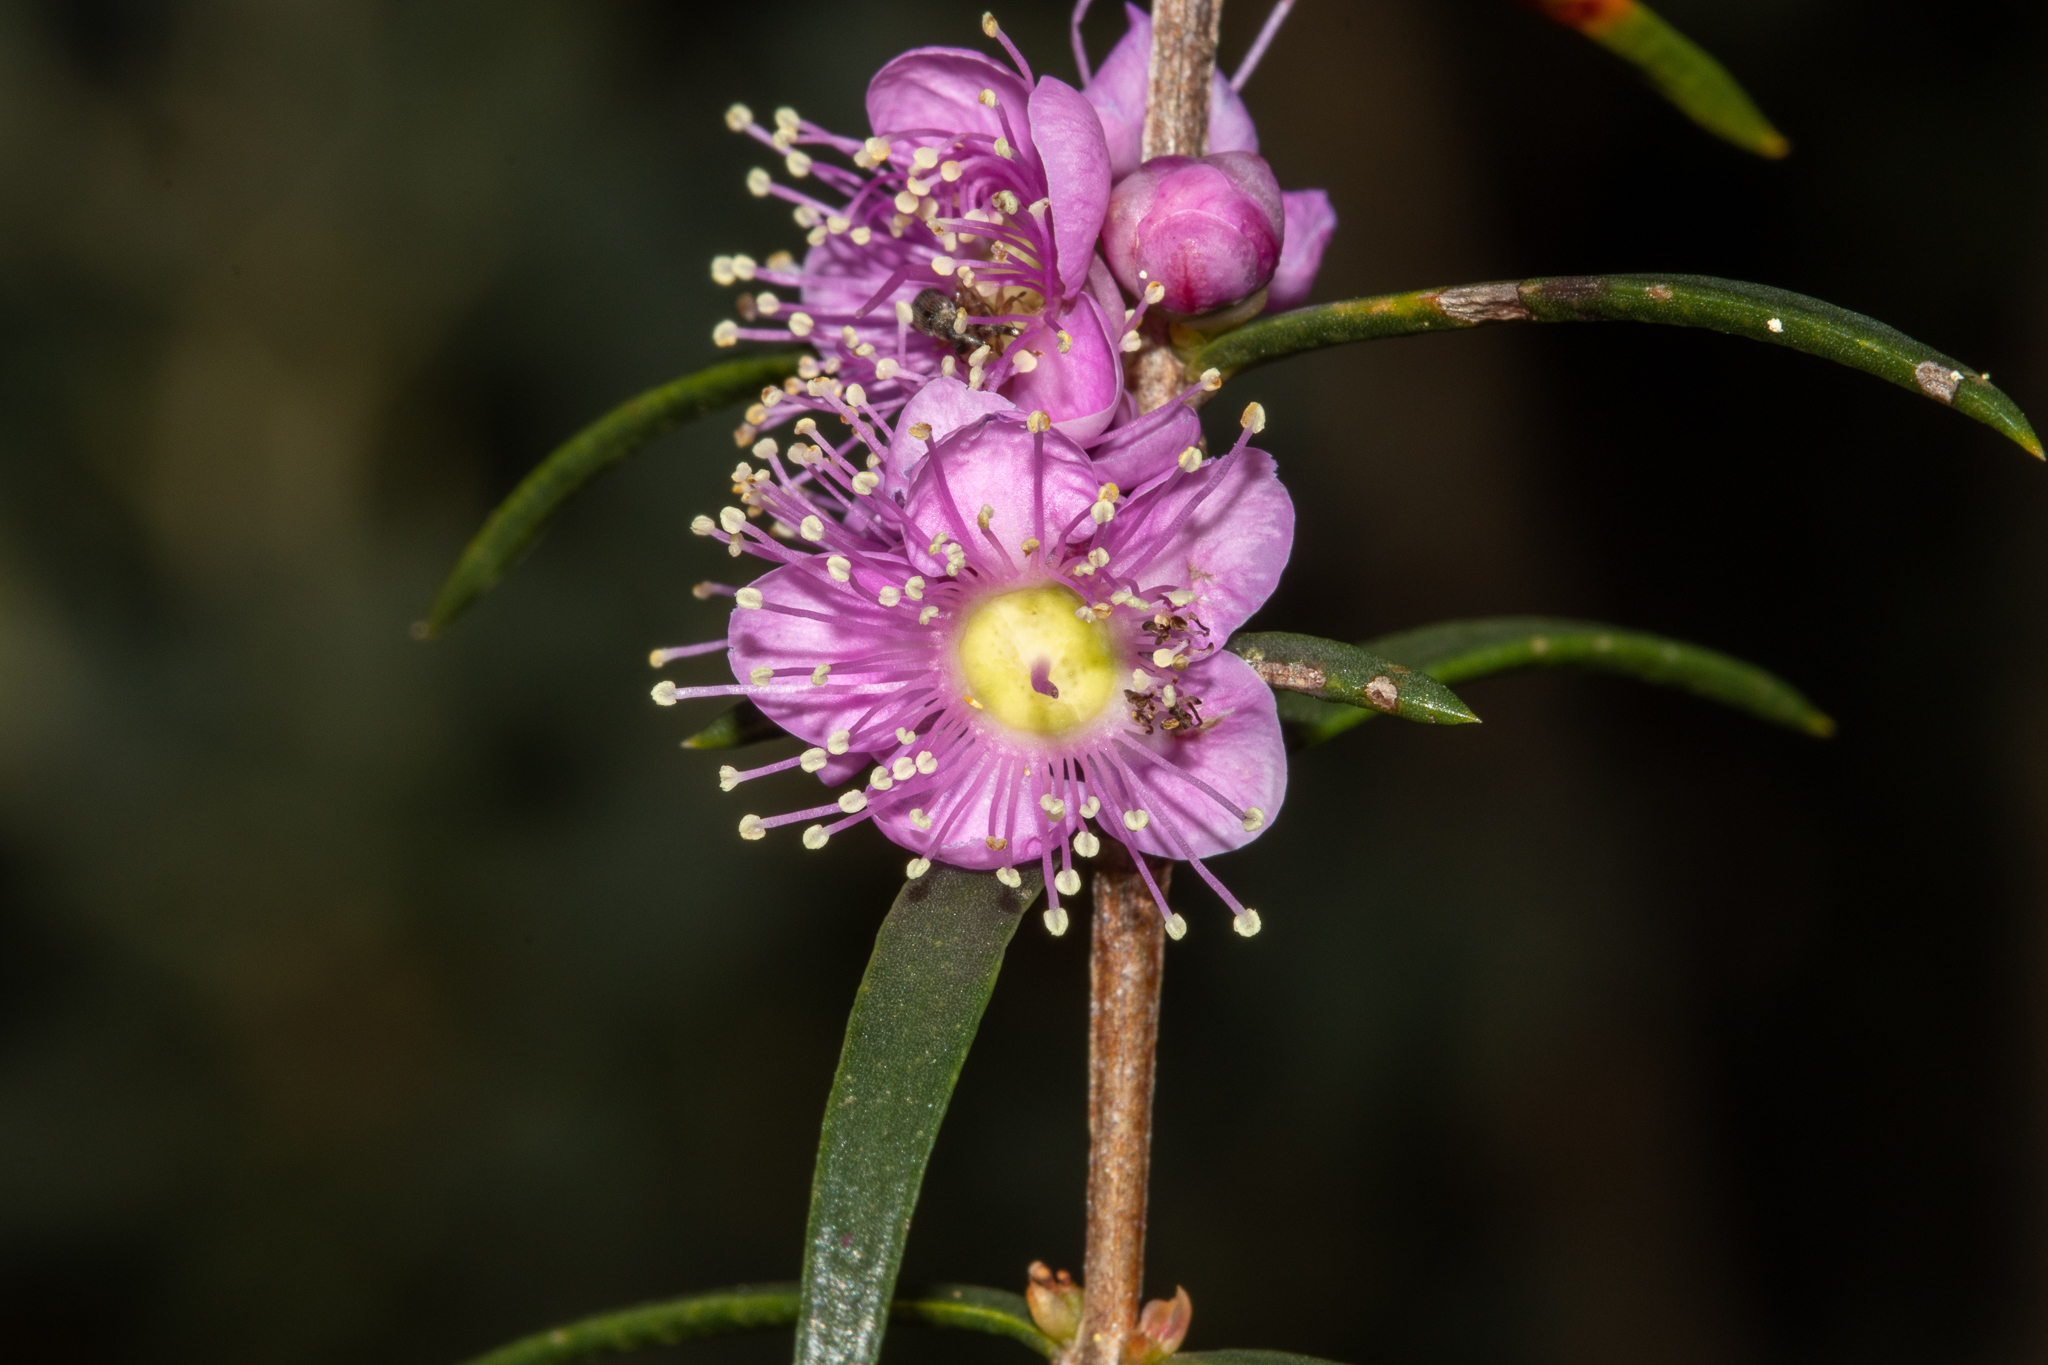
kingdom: Plantae
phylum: Tracheophyta
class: Magnoliopsida
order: Myrtales
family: Myrtaceae
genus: Hypocalymma
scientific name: Hypocalymma robustum
